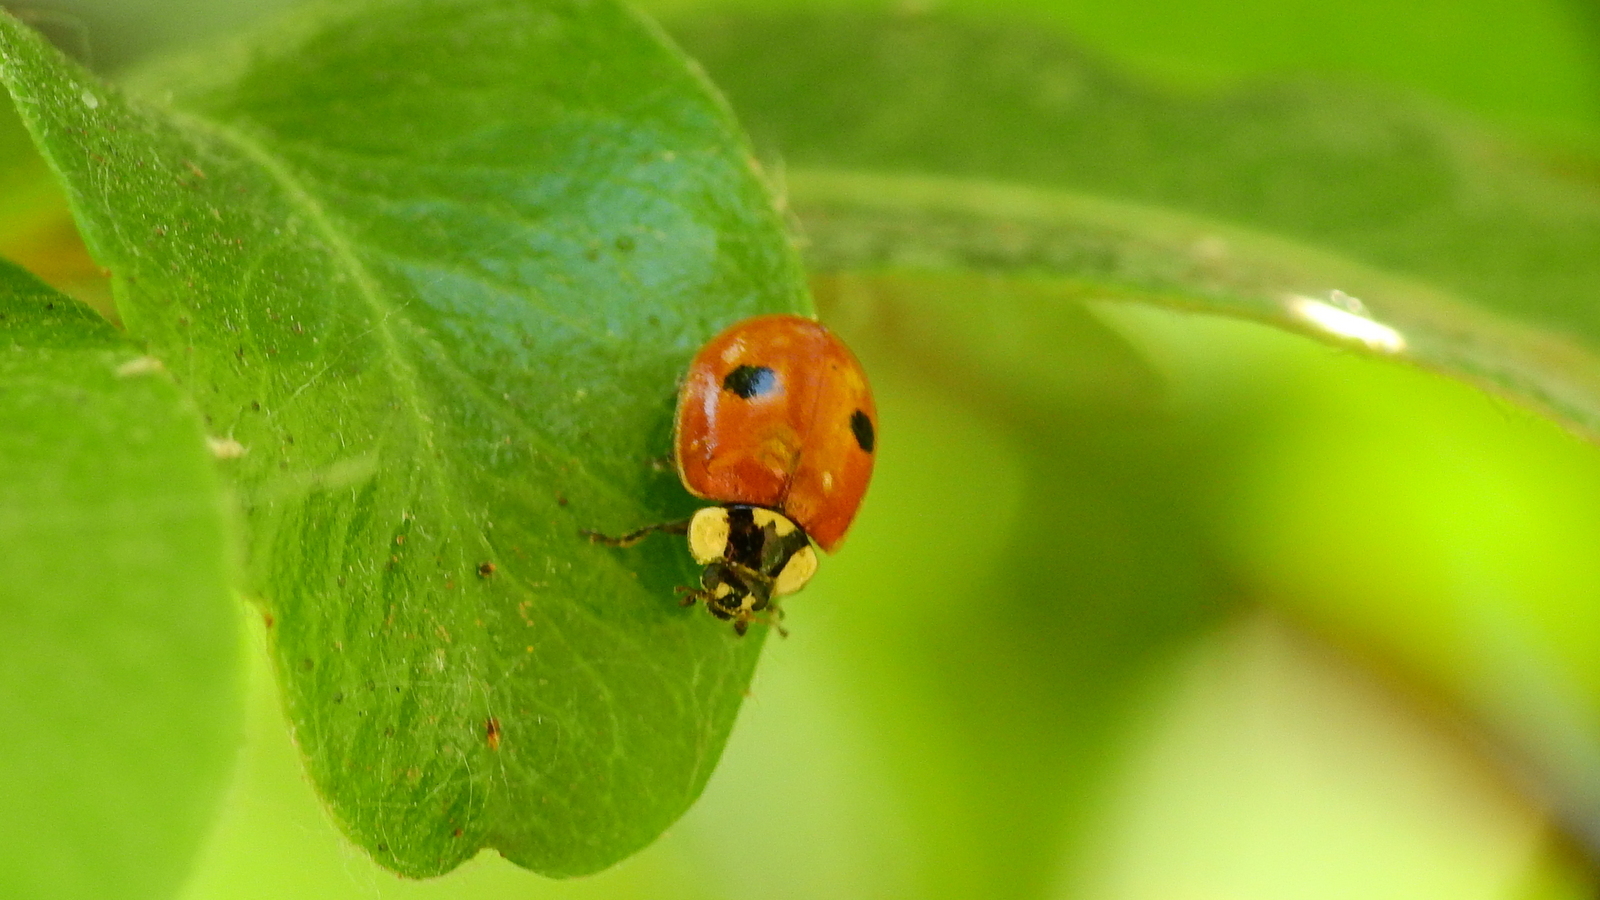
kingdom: Animalia
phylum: Arthropoda
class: Insecta
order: Coleoptera
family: Coccinellidae
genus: Adalia
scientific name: Adalia bipunctata
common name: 2-spot ladybird
